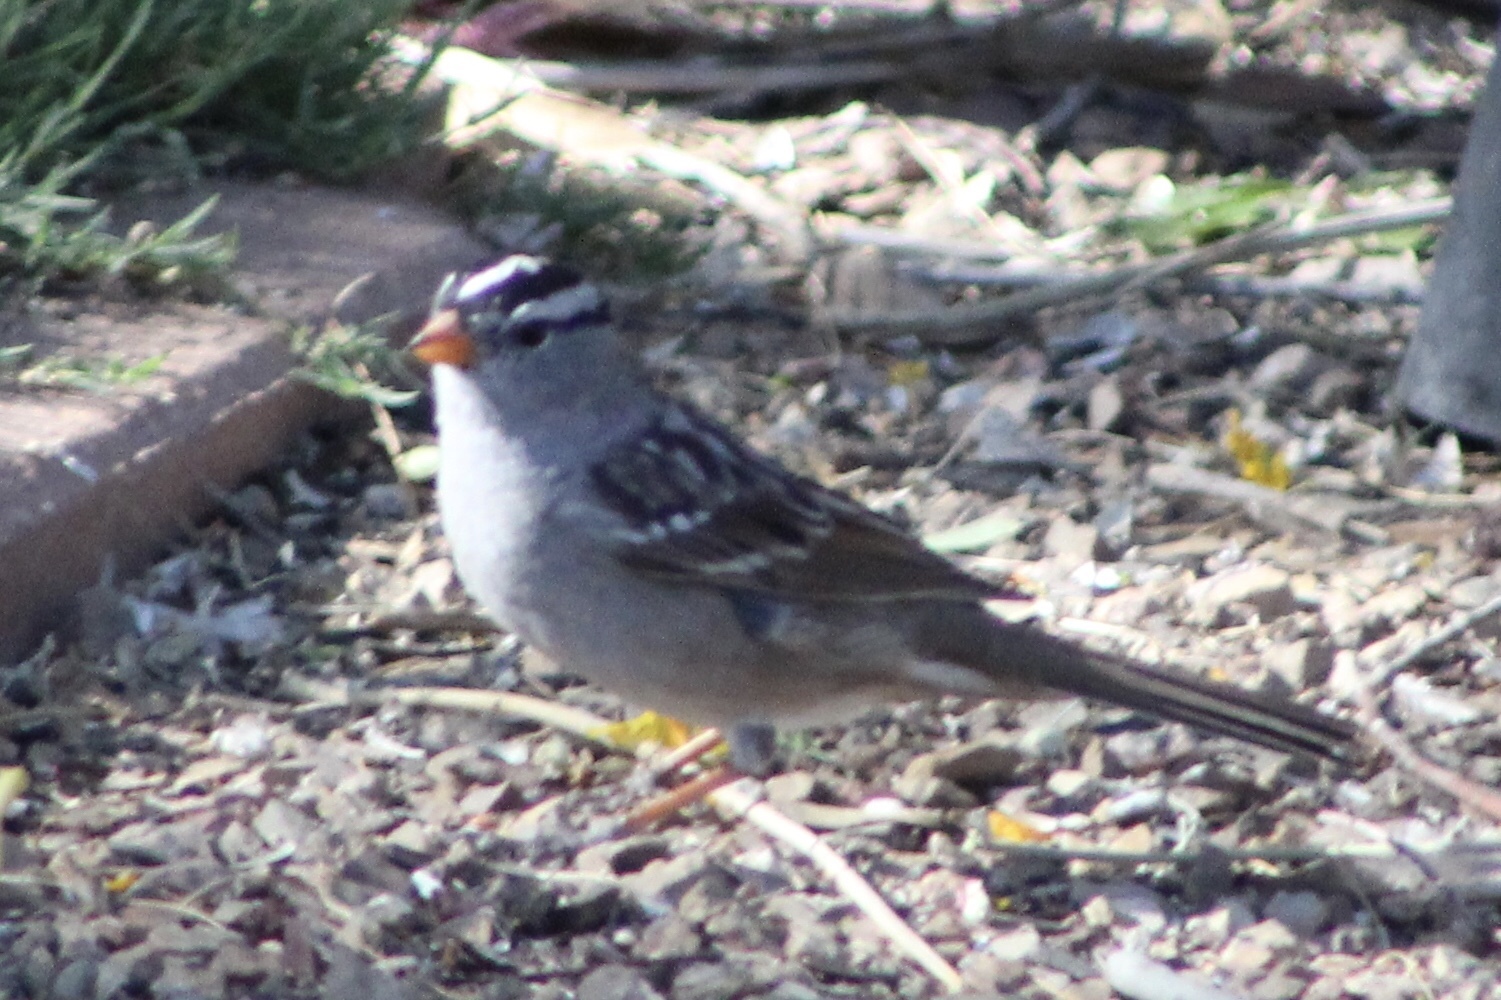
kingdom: Animalia
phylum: Chordata
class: Aves
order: Passeriformes
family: Passerellidae
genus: Zonotrichia
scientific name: Zonotrichia leucophrys
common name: White-crowned sparrow
